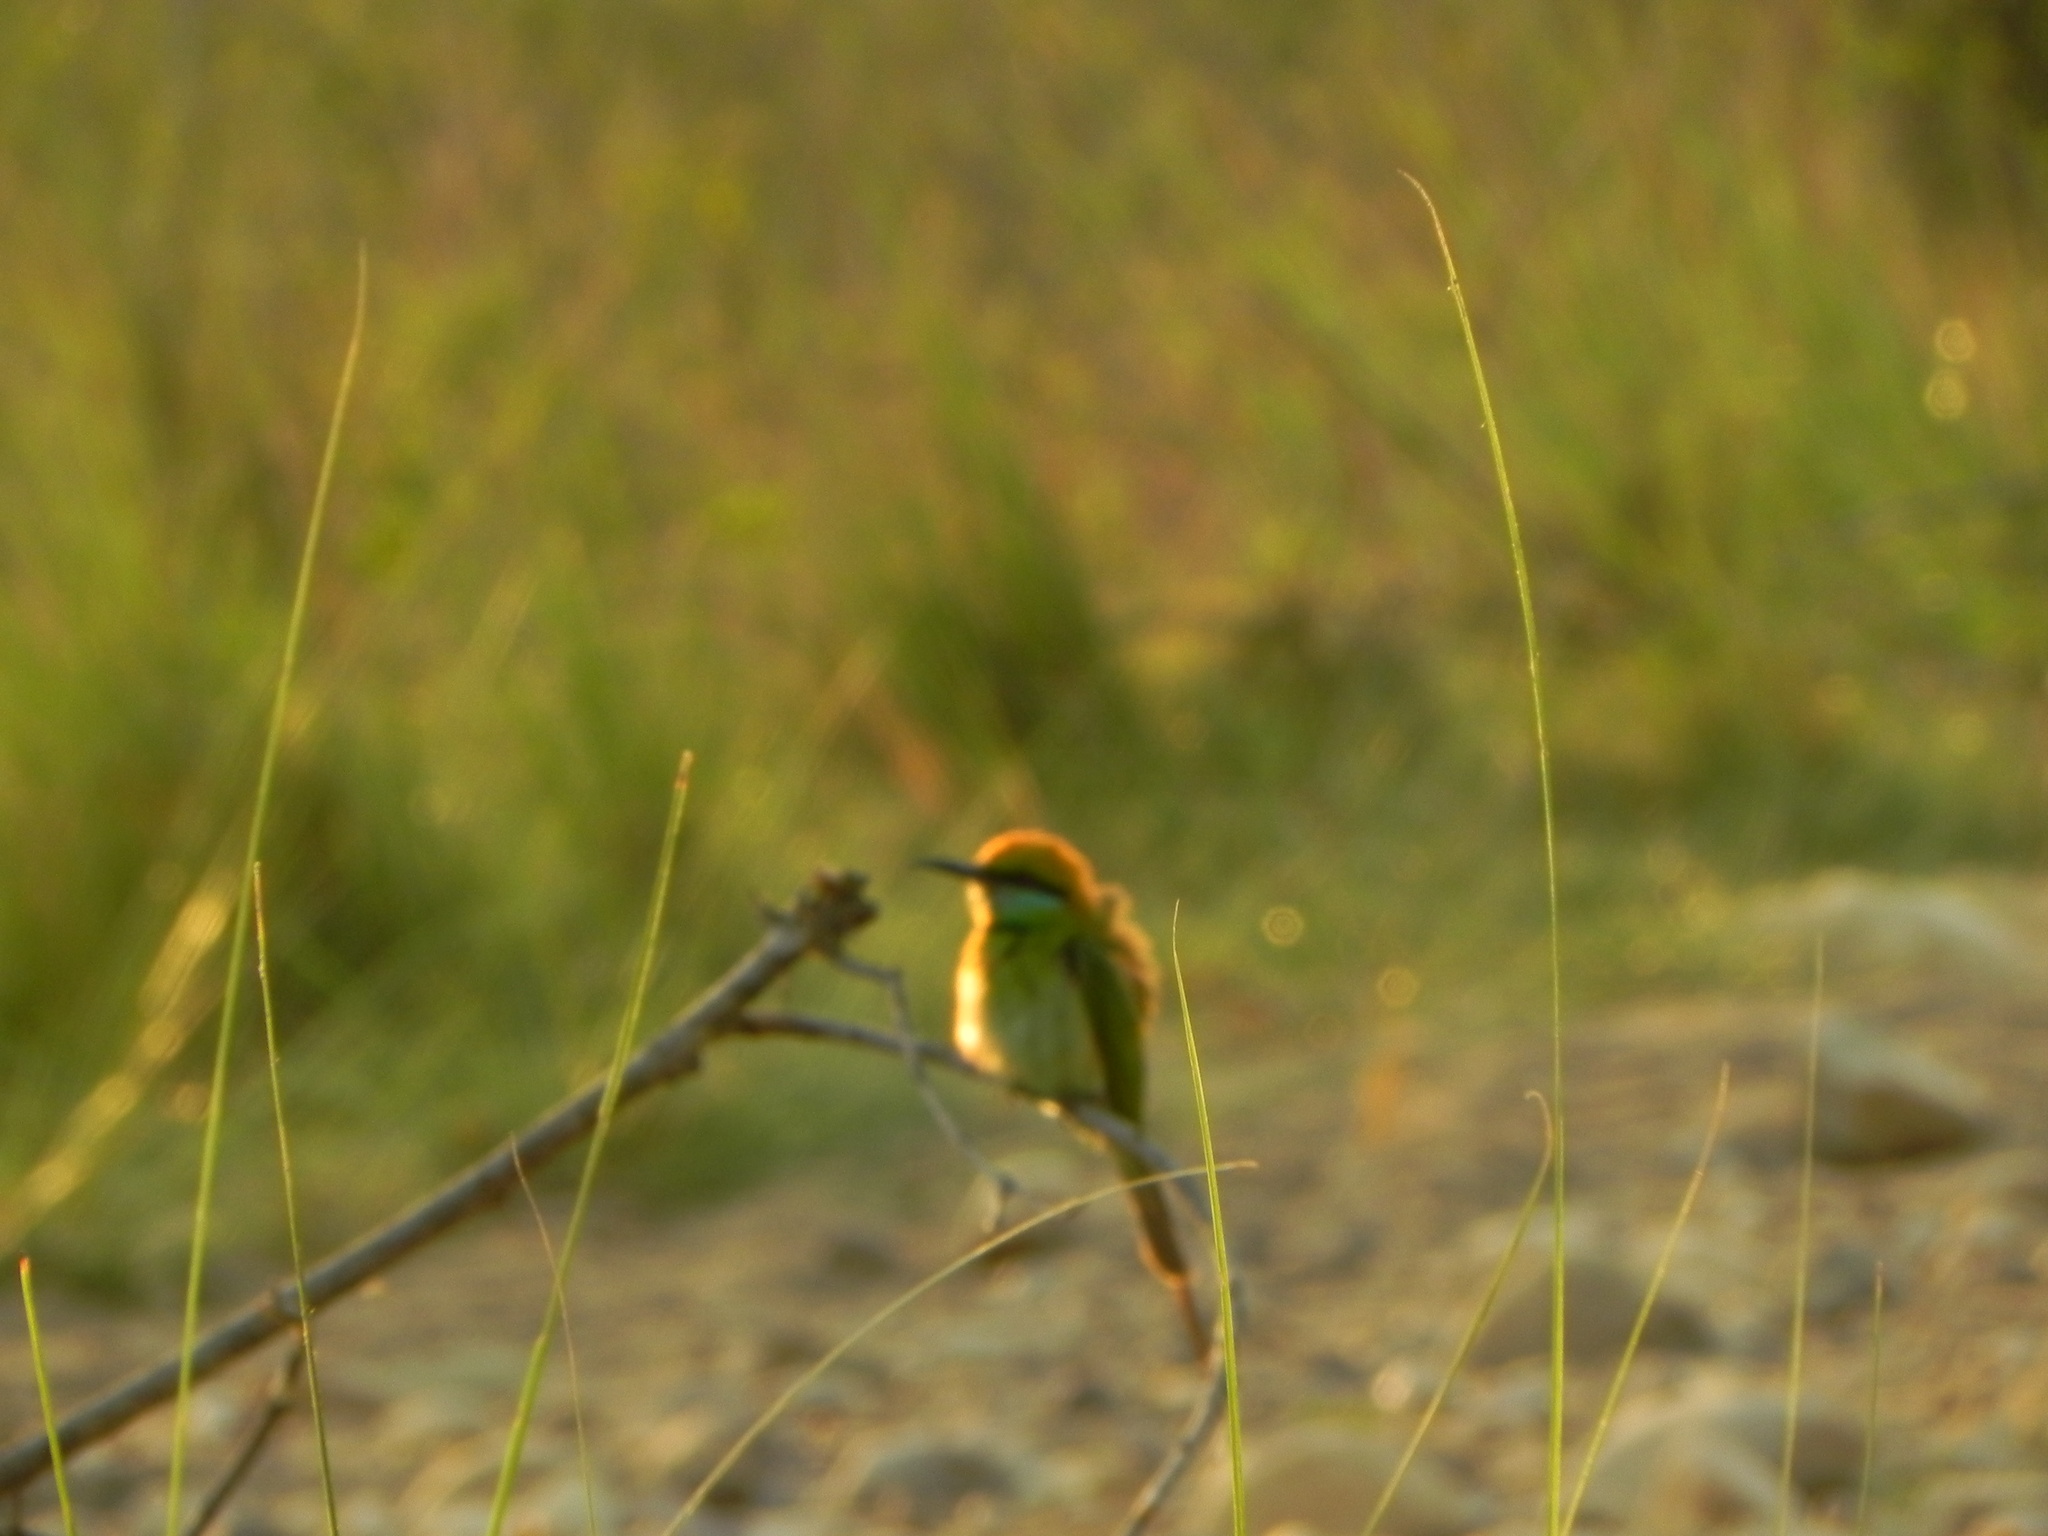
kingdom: Animalia
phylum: Chordata
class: Aves
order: Coraciiformes
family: Meropidae
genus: Merops
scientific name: Merops orientalis
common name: Green bee-eater
